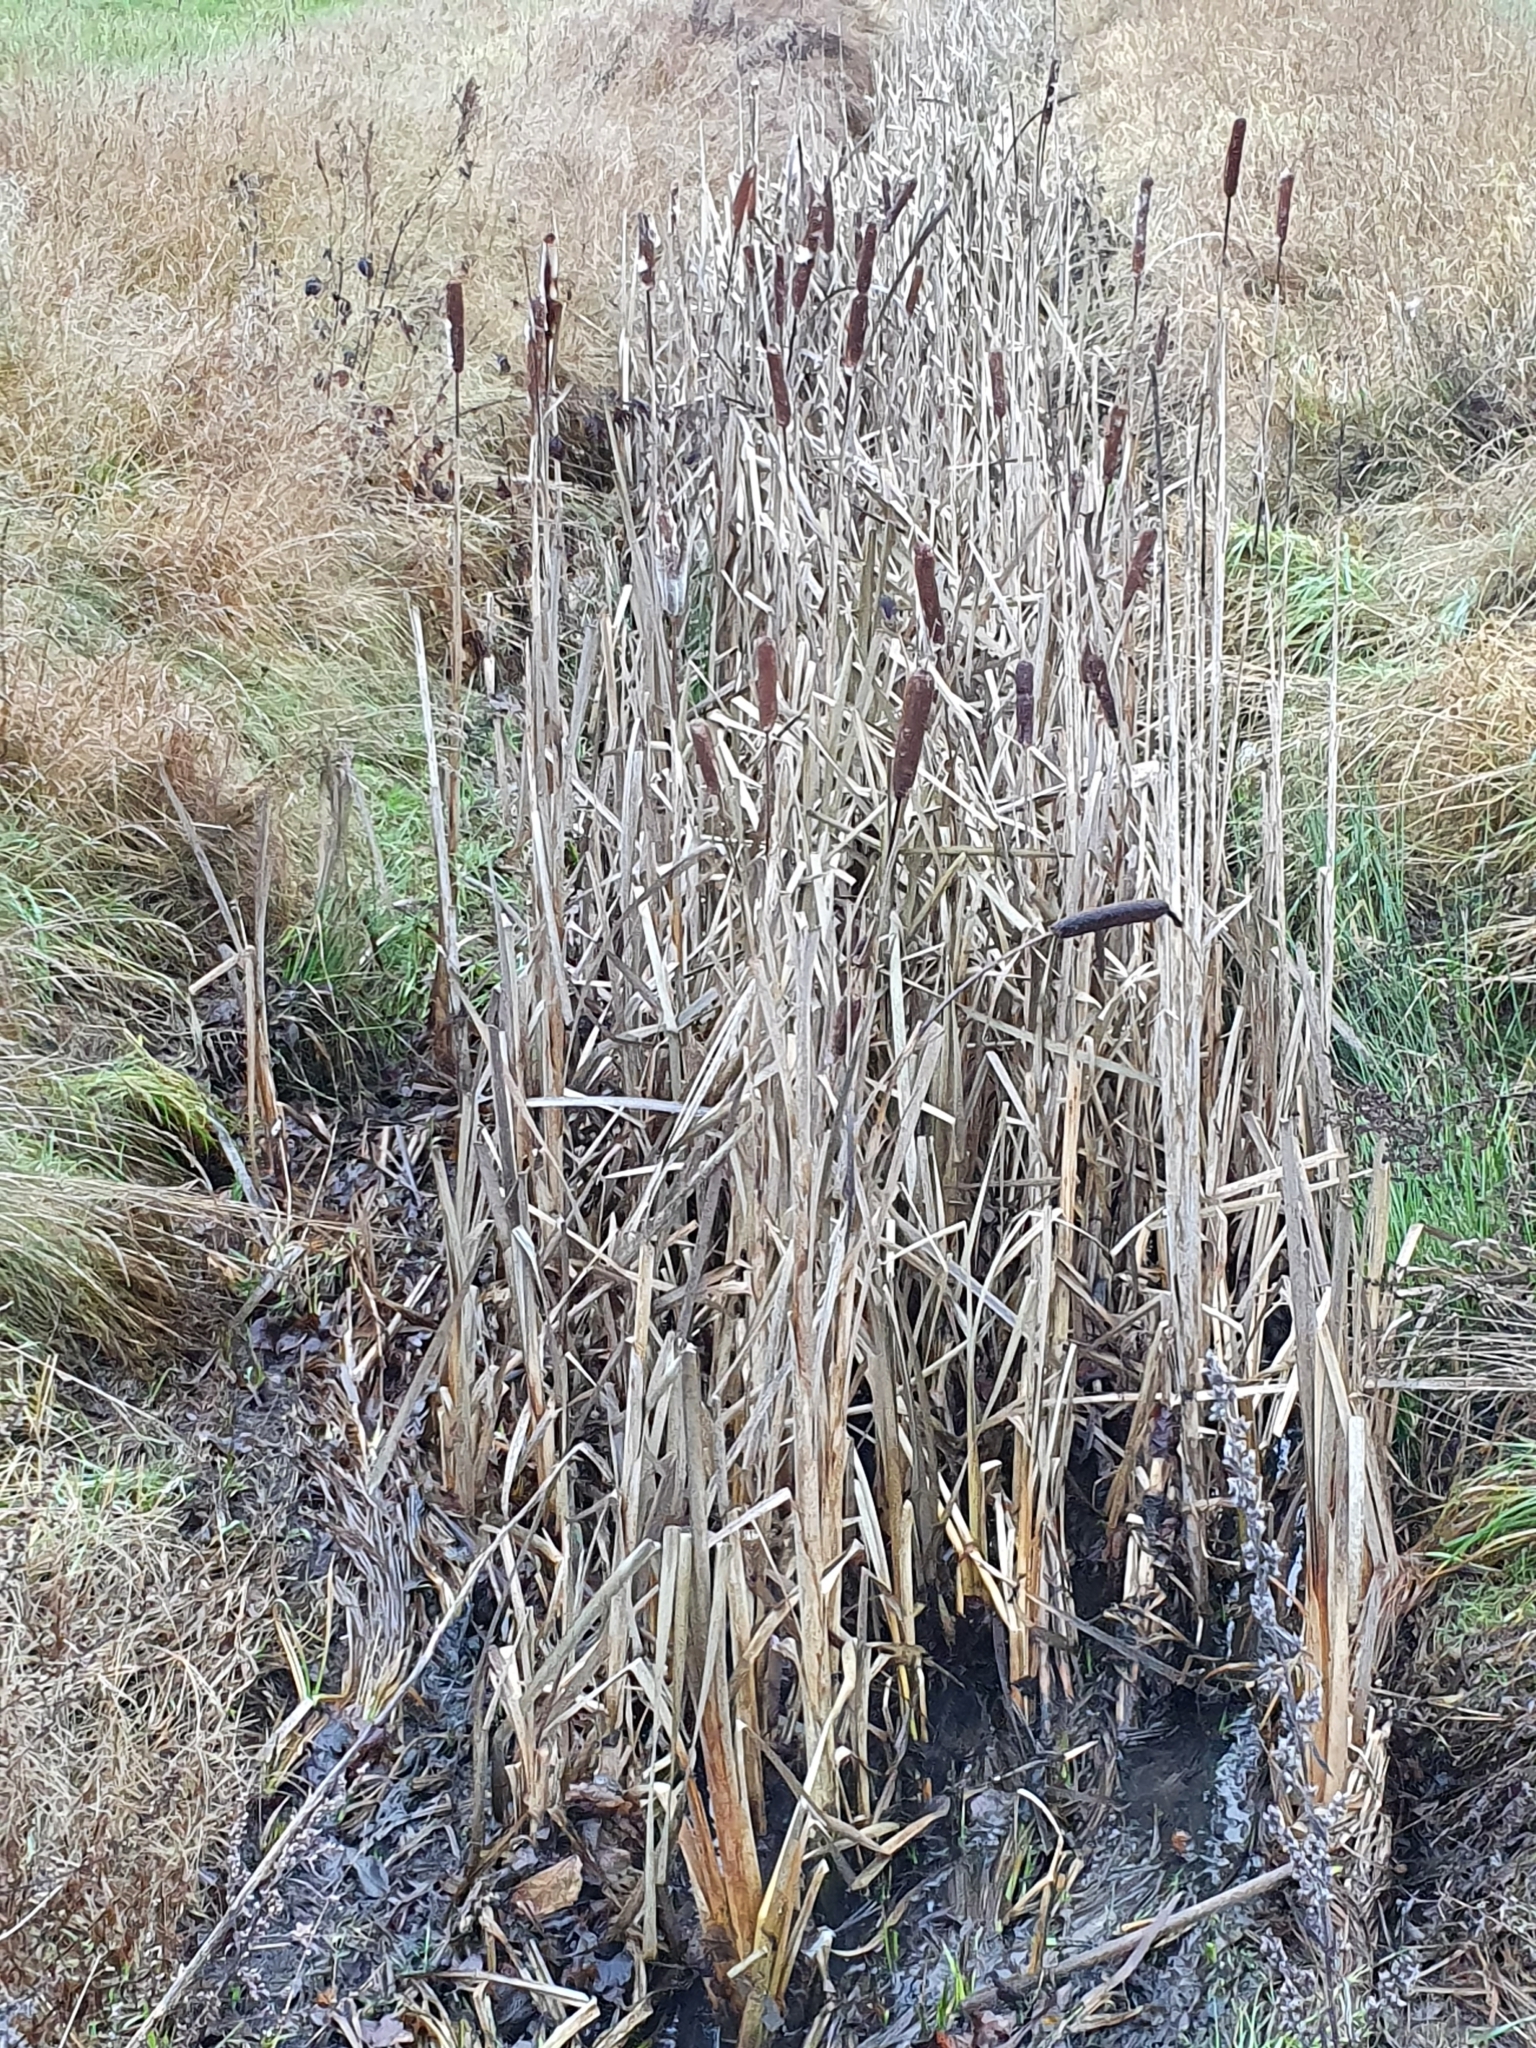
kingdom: Plantae
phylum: Tracheophyta
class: Liliopsida
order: Poales
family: Typhaceae
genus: Typha
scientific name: Typha latifolia
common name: Broadleaf cattail
